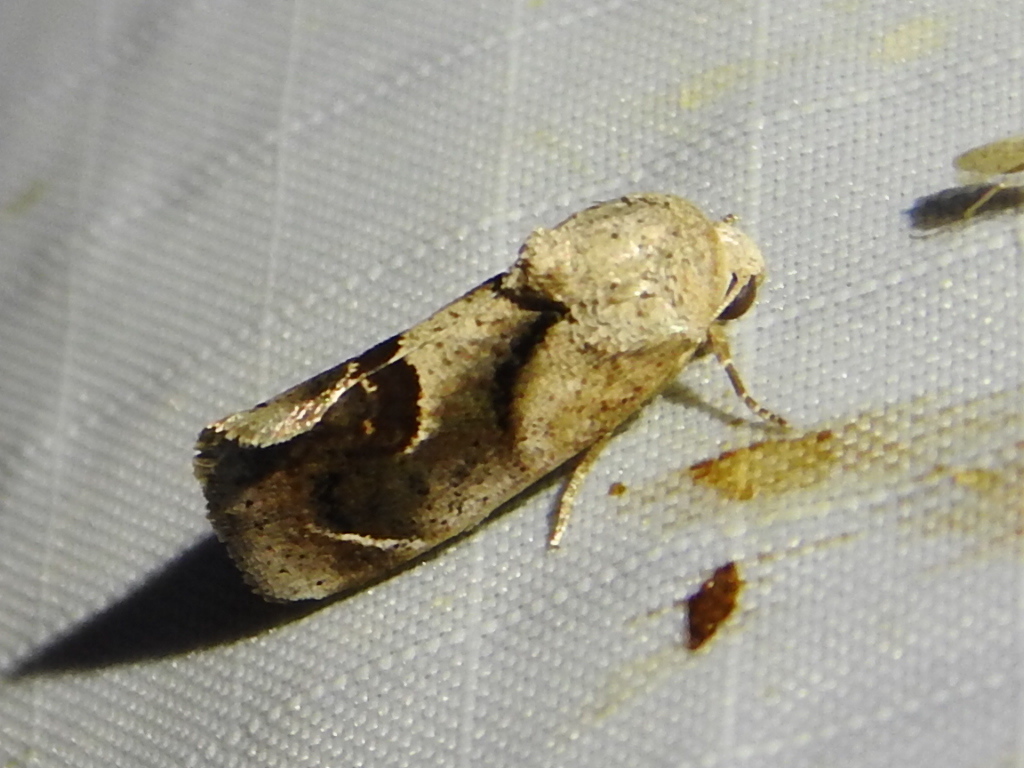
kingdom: Animalia
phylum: Arthropoda
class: Insecta
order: Lepidoptera
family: Noctuidae
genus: Acontia
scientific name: Acontia dacia
